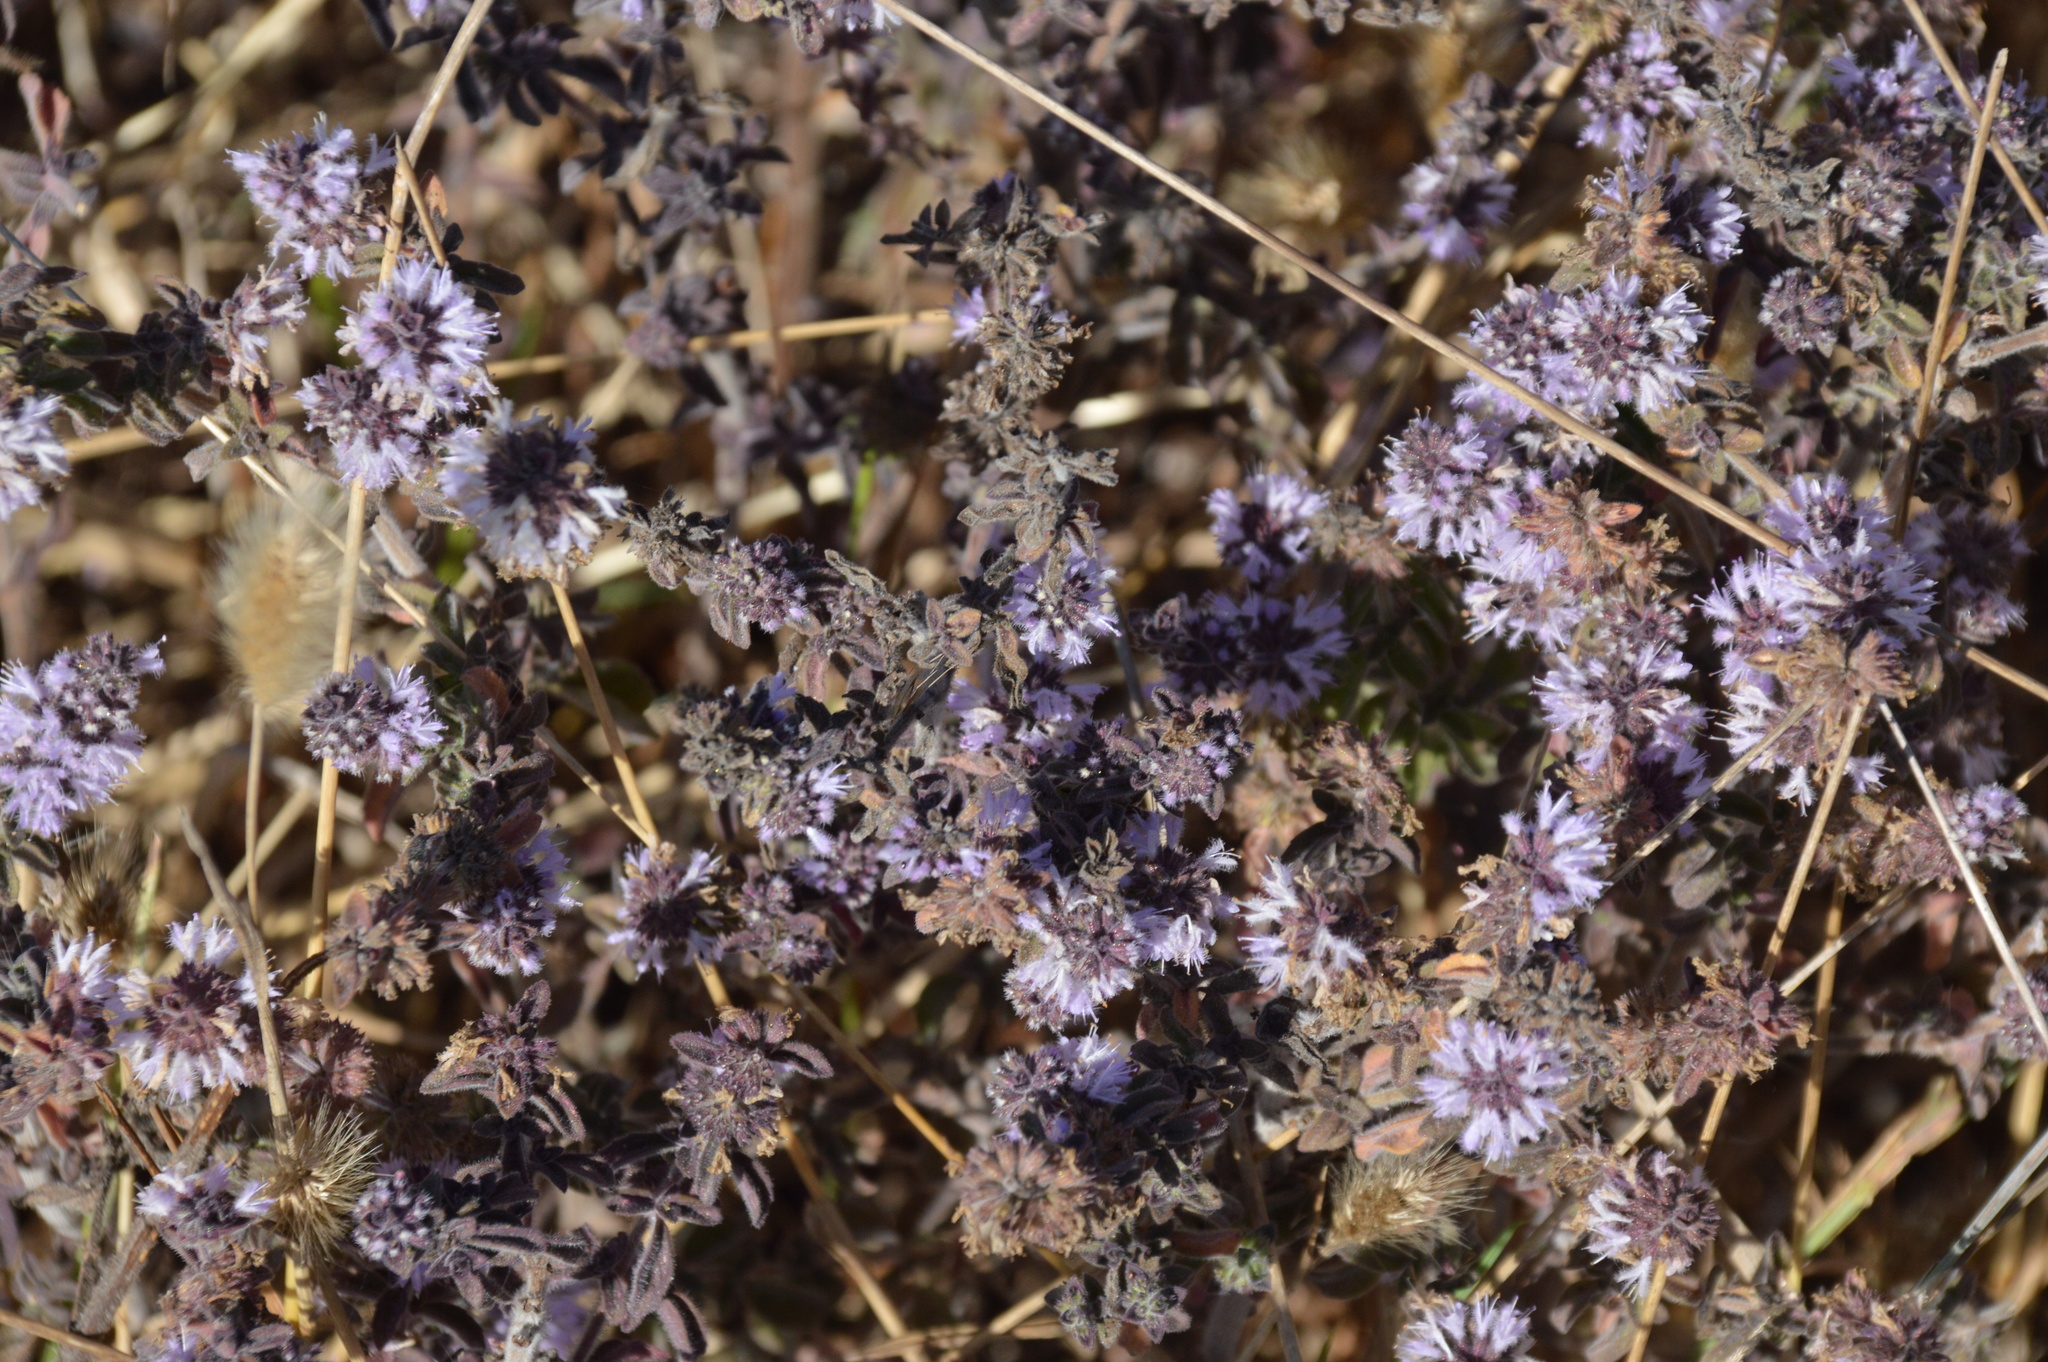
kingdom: Plantae
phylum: Tracheophyta
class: Magnoliopsida
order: Lamiales
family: Lamiaceae
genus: Mentha
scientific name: Mentha pulegium
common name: Pennyroyal
